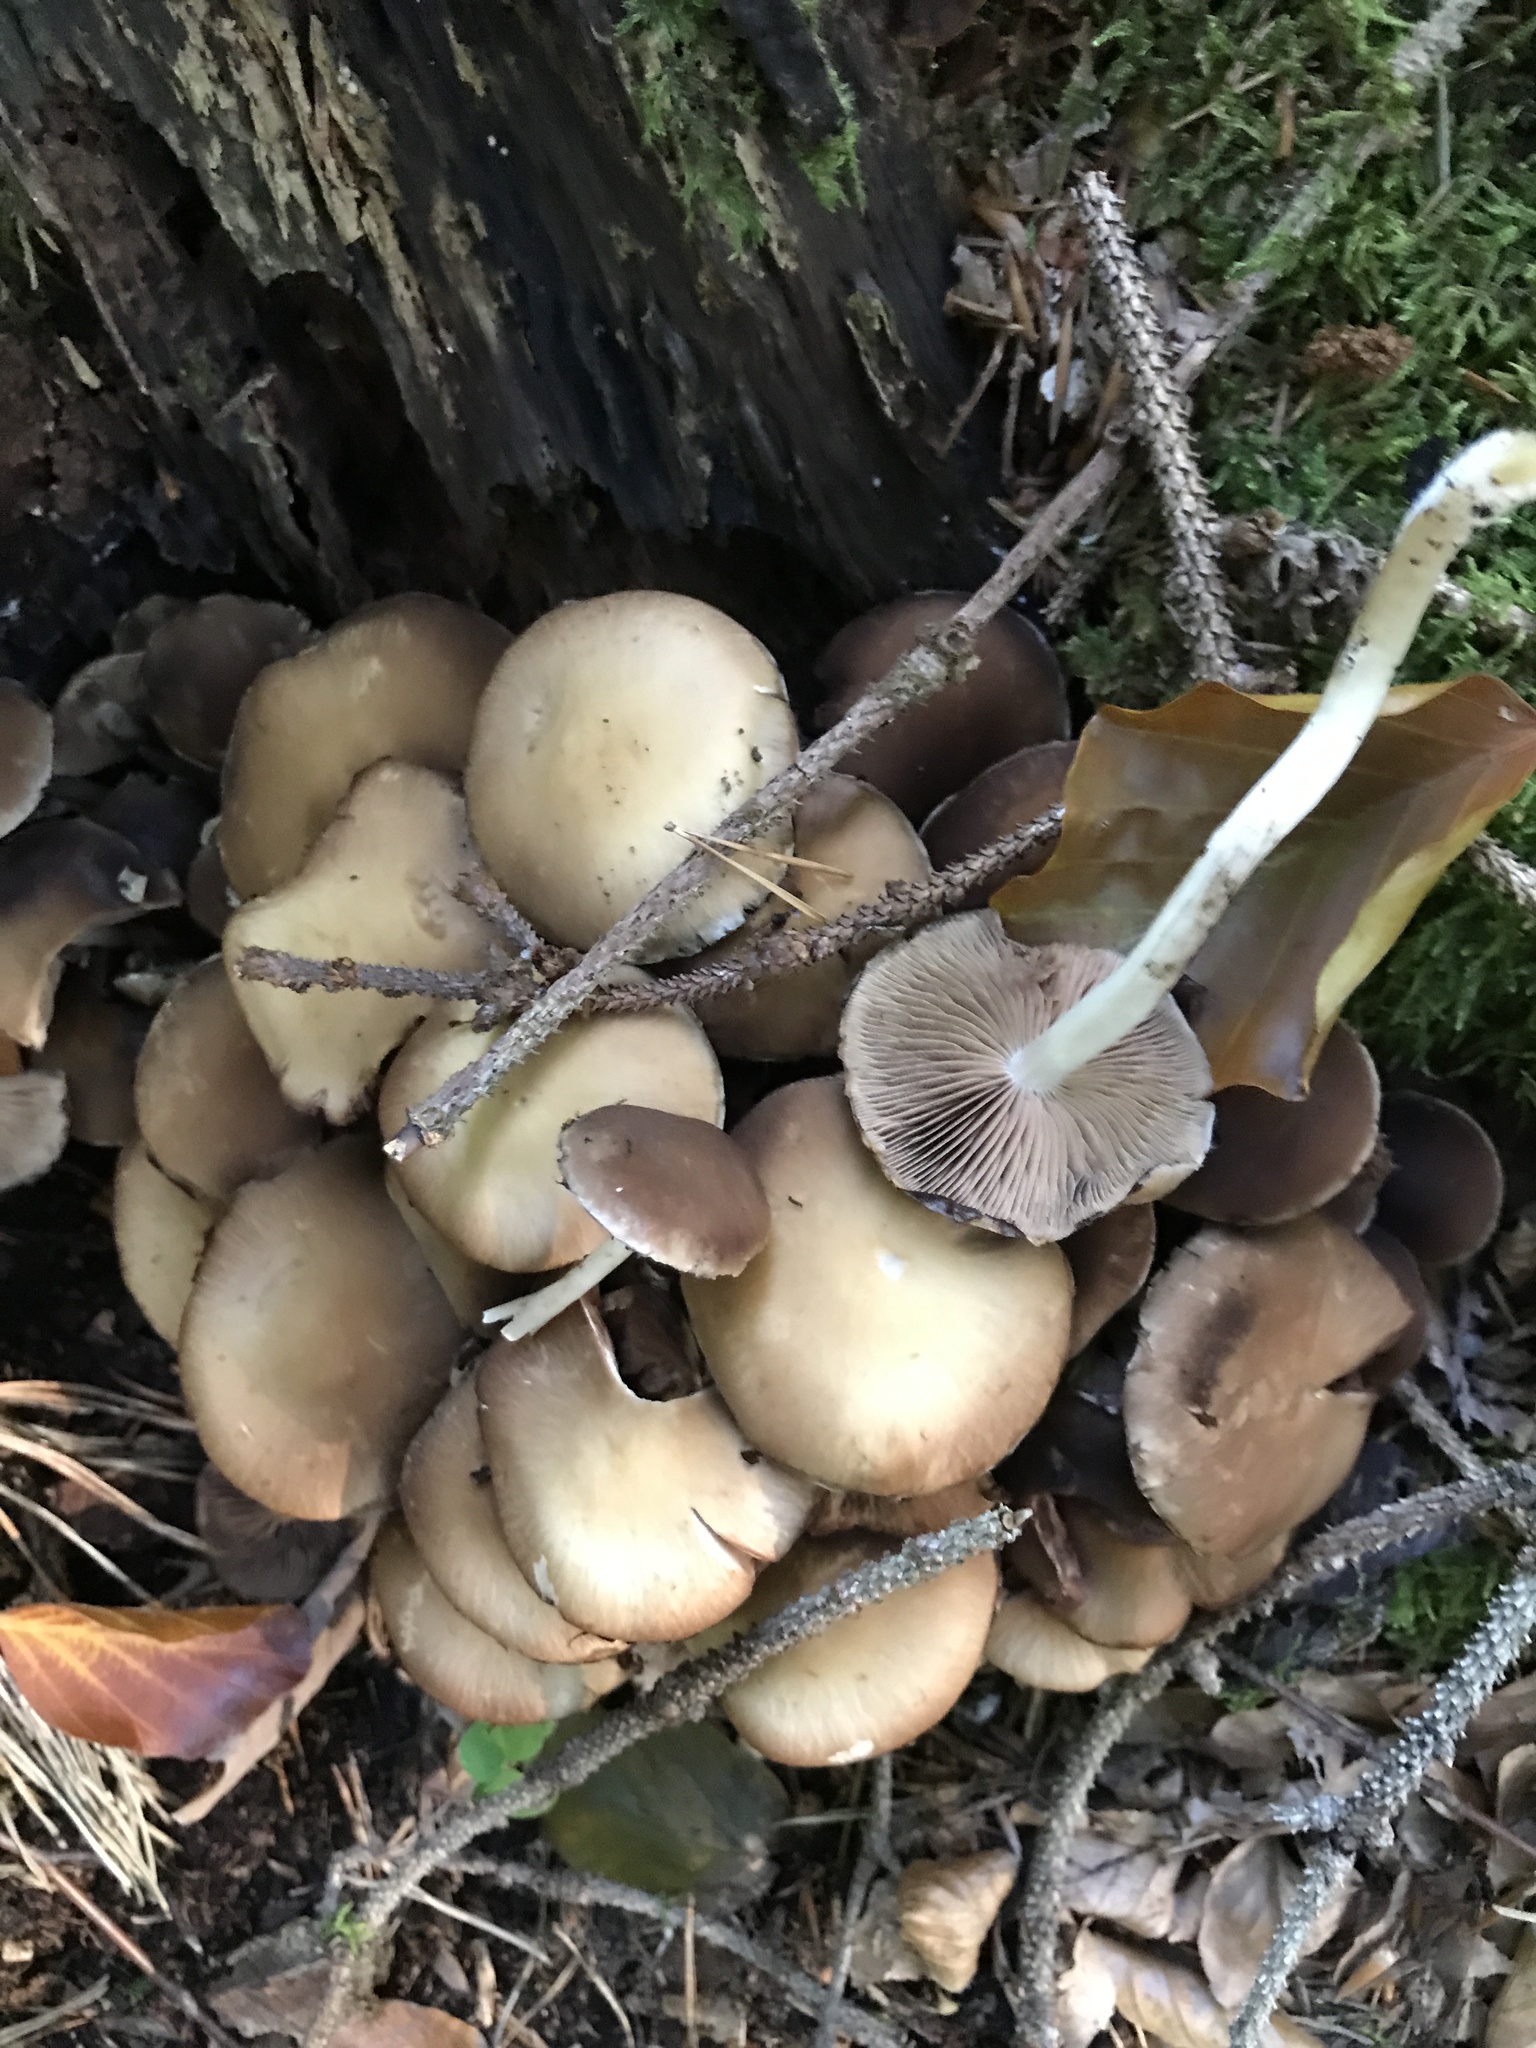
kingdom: Fungi
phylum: Basidiomycota
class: Agaricomycetes
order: Agaricales
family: Psathyrellaceae
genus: Psathyrella
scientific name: Psathyrella piluliformis
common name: Common stump brittlestem
